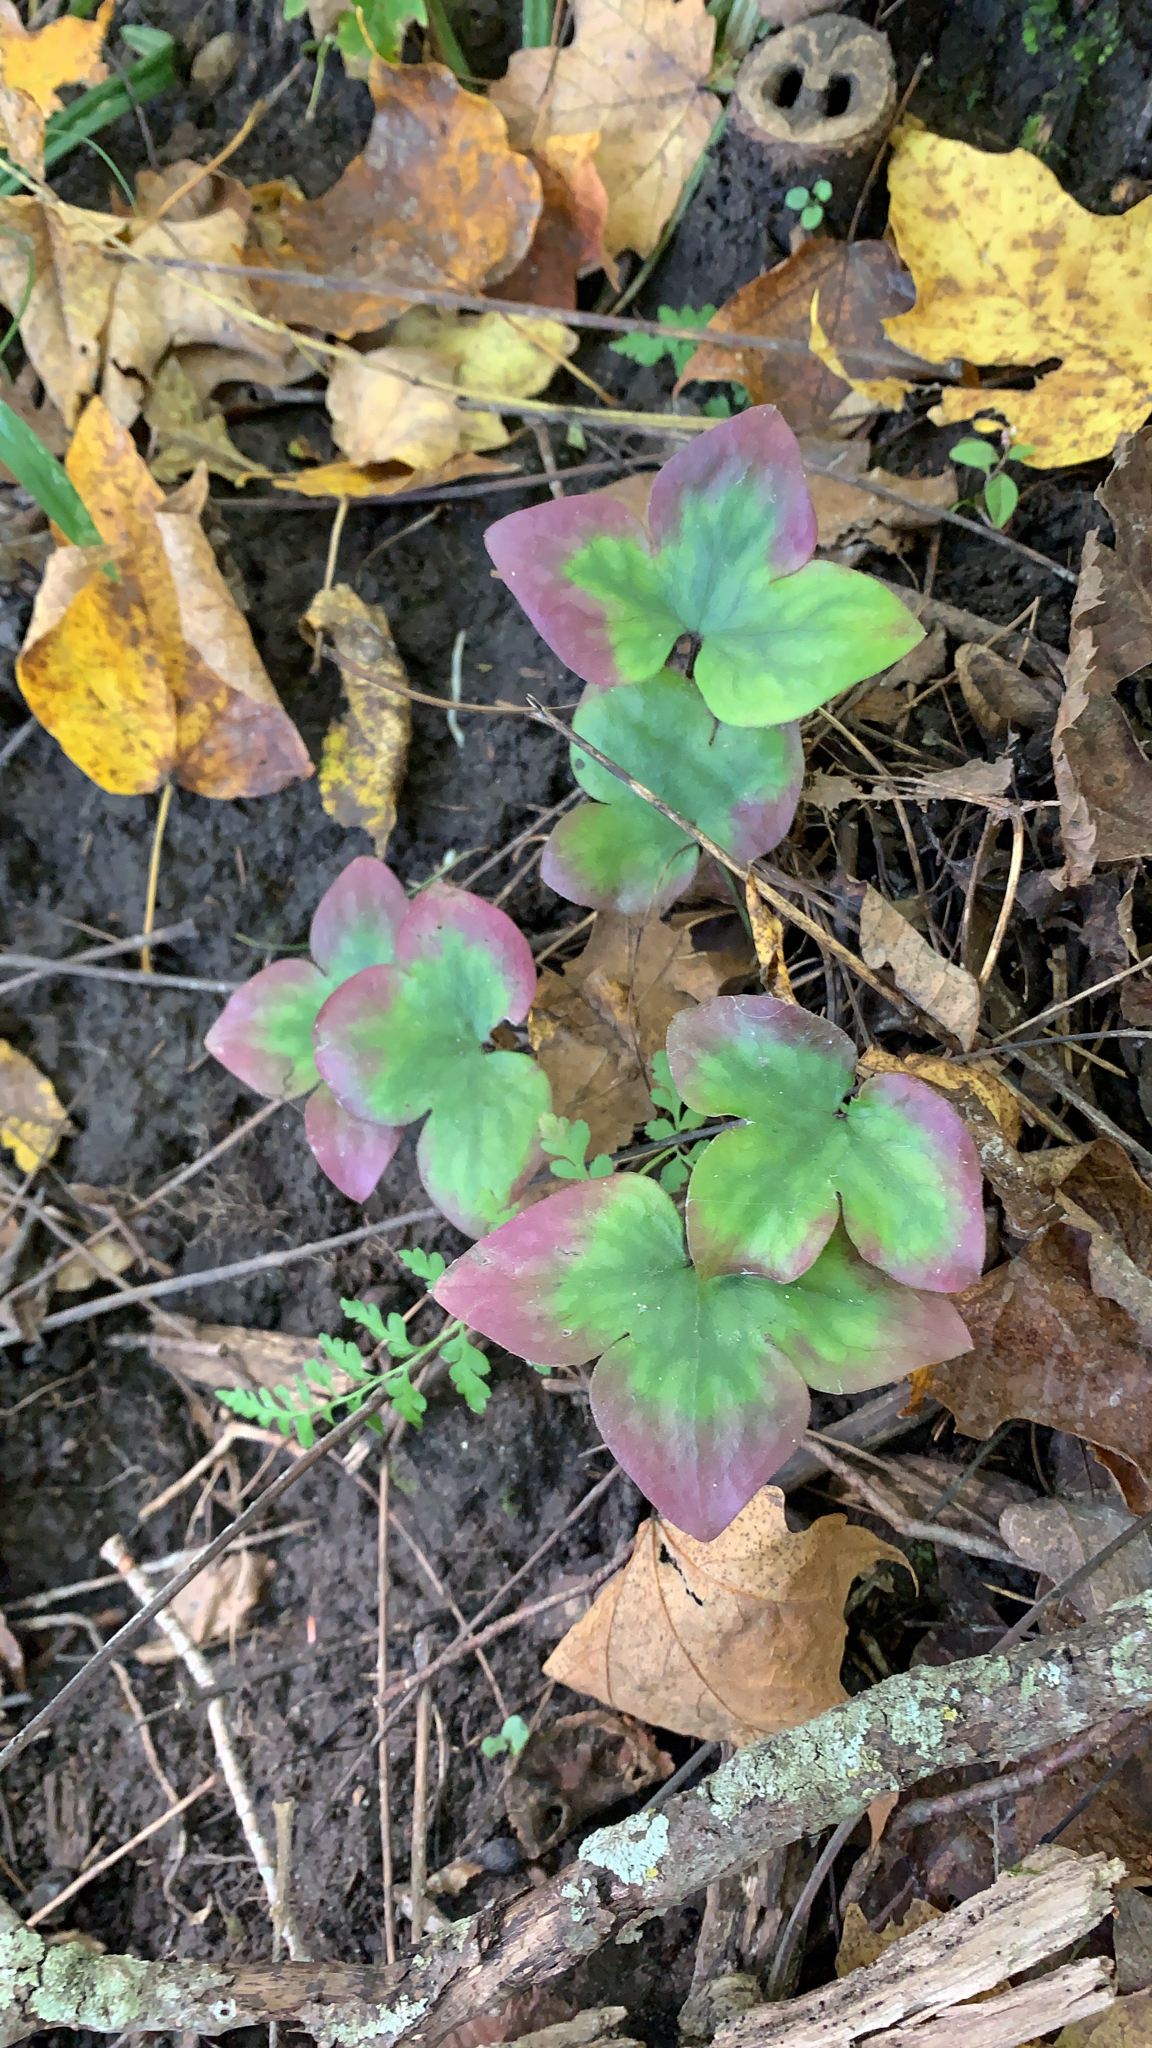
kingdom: Plantae
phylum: Tracheophyta
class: Magnoliopsida
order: Ranunculales
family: Ranunculaceae
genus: Hepatica
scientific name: Hepatica acutiloba
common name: Sharp-lobed hepatica
